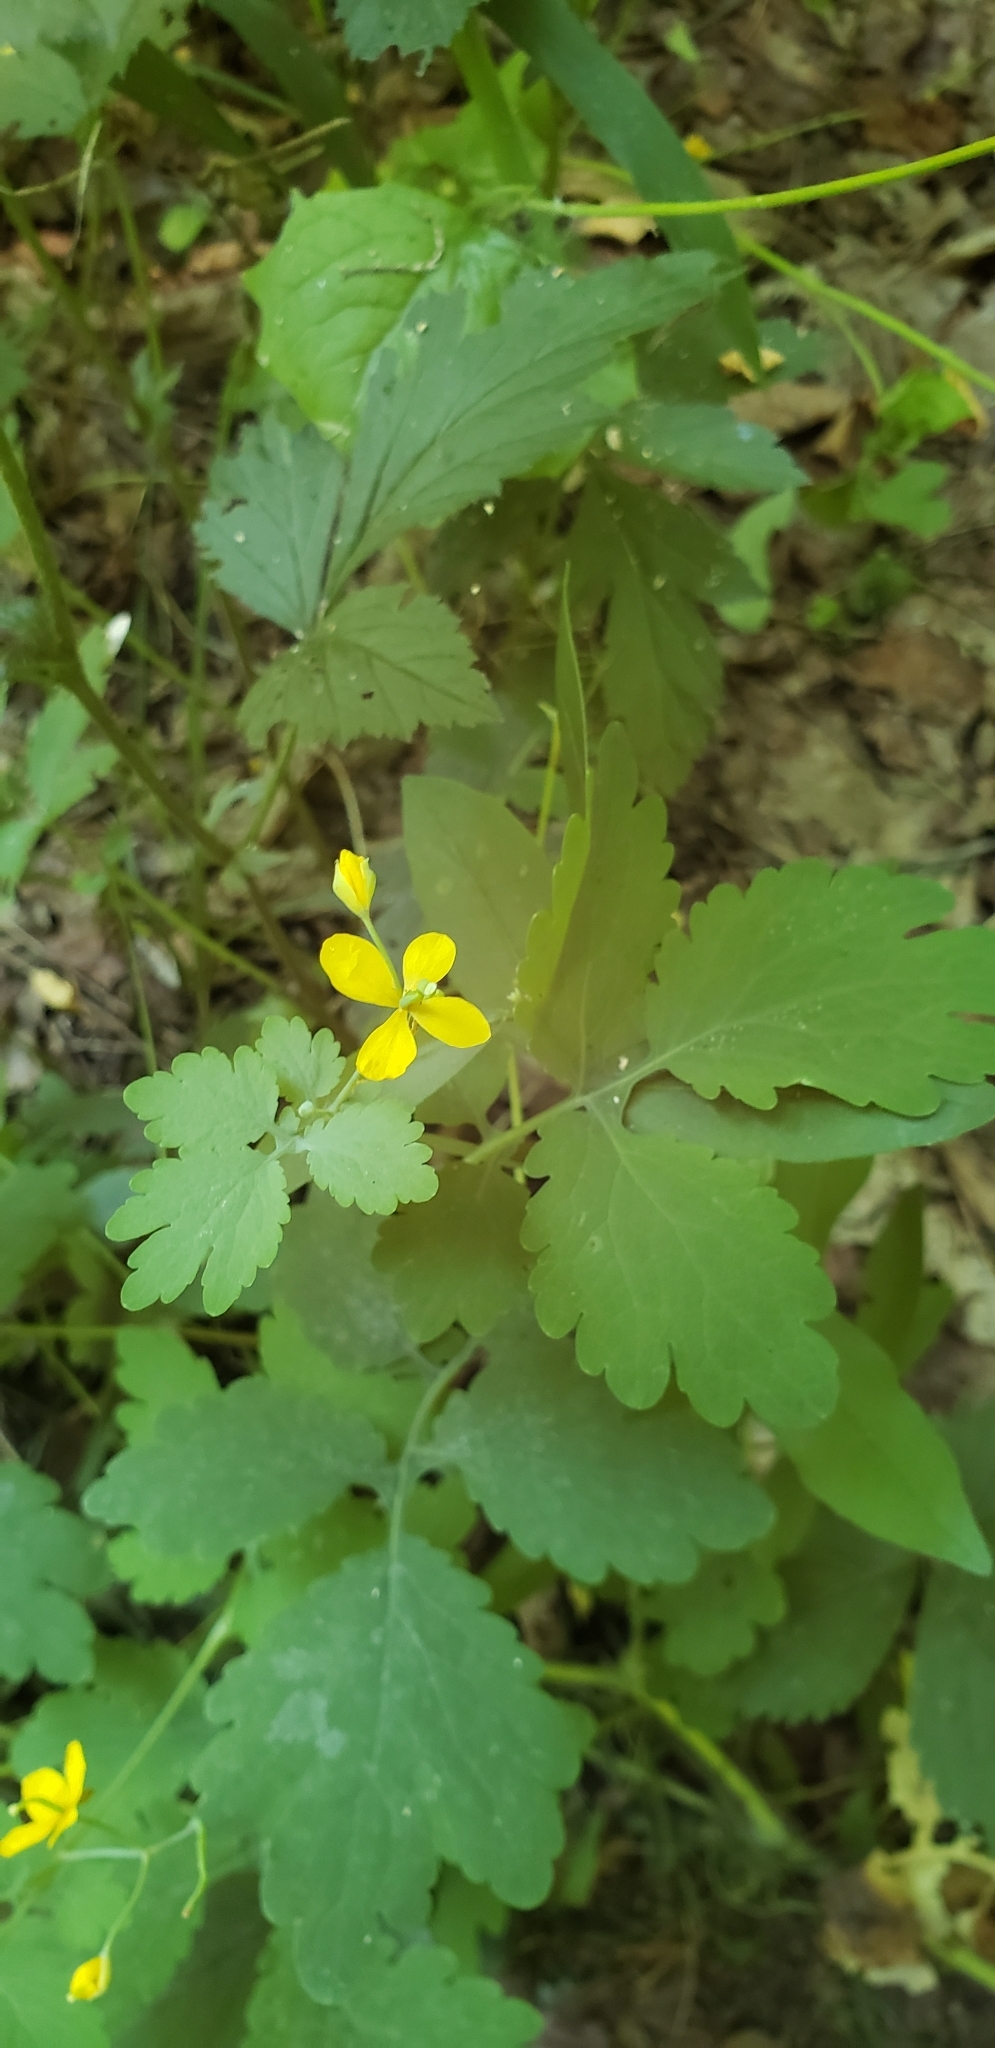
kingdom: Plantae
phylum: Tracheophyta
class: Magnoliopsida
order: Ranunculales
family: Papaveraceae
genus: Chelidonium
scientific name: Chelidonium majus
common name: Greater celandine
